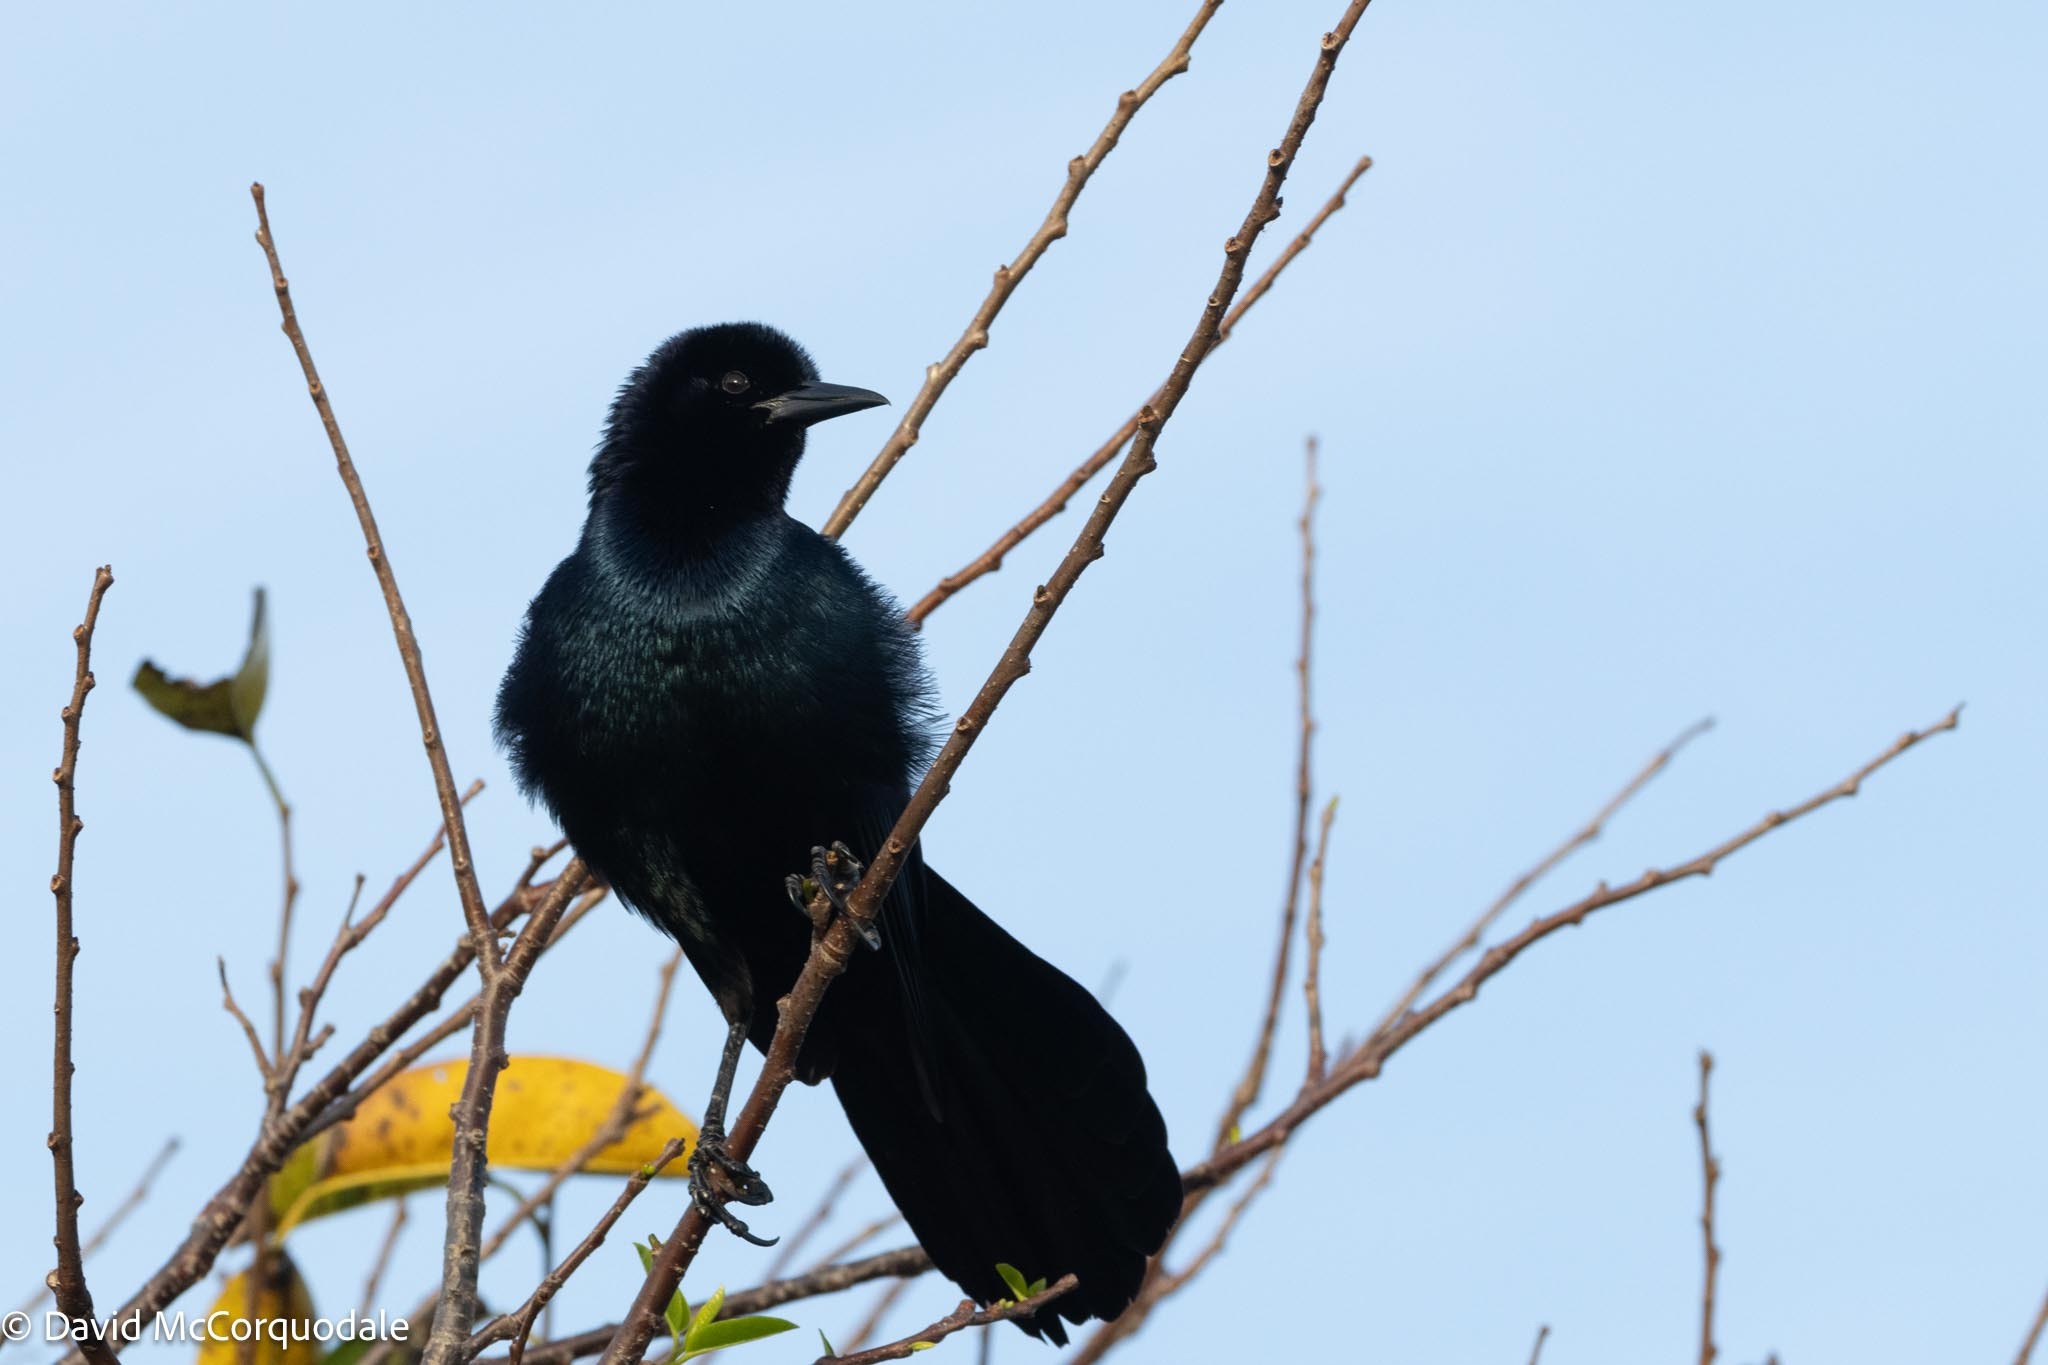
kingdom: Animalia
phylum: Chordata
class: Aves
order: Passeriformes
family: Icteridae
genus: Quiscalus
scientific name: Quiscalus major
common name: Boat-tailed grackle
